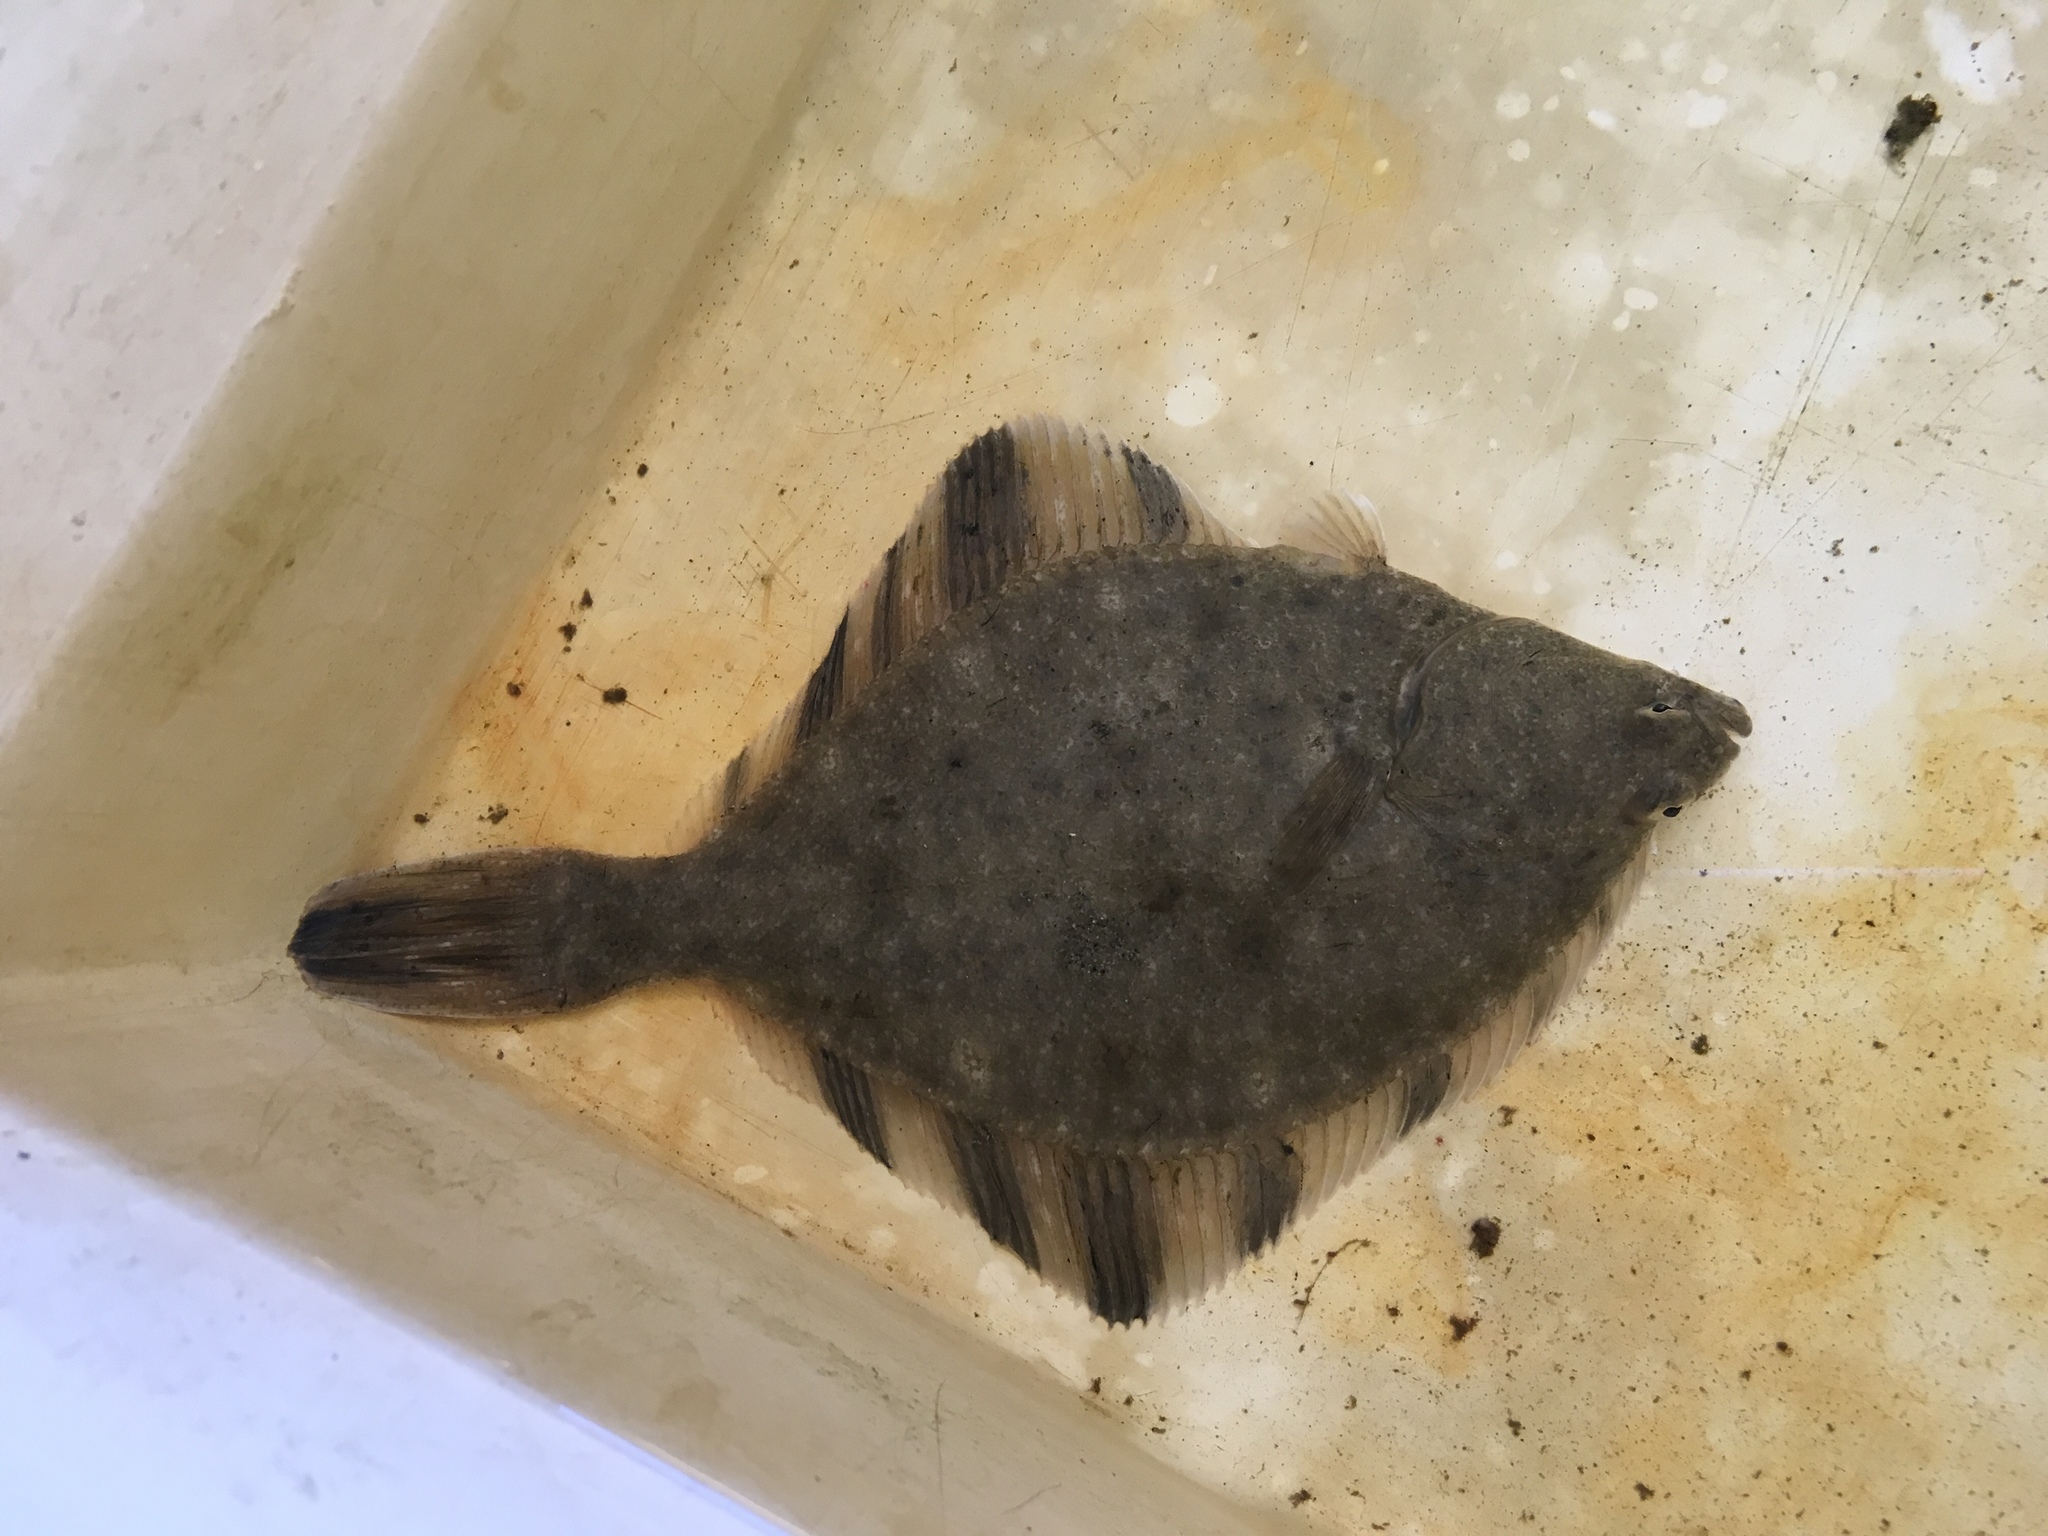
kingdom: Animalia
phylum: Chordata
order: Pleuronectiformes
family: Pleuronectidae
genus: Platichthys
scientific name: Platichthys stellatus
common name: Starry flounder
